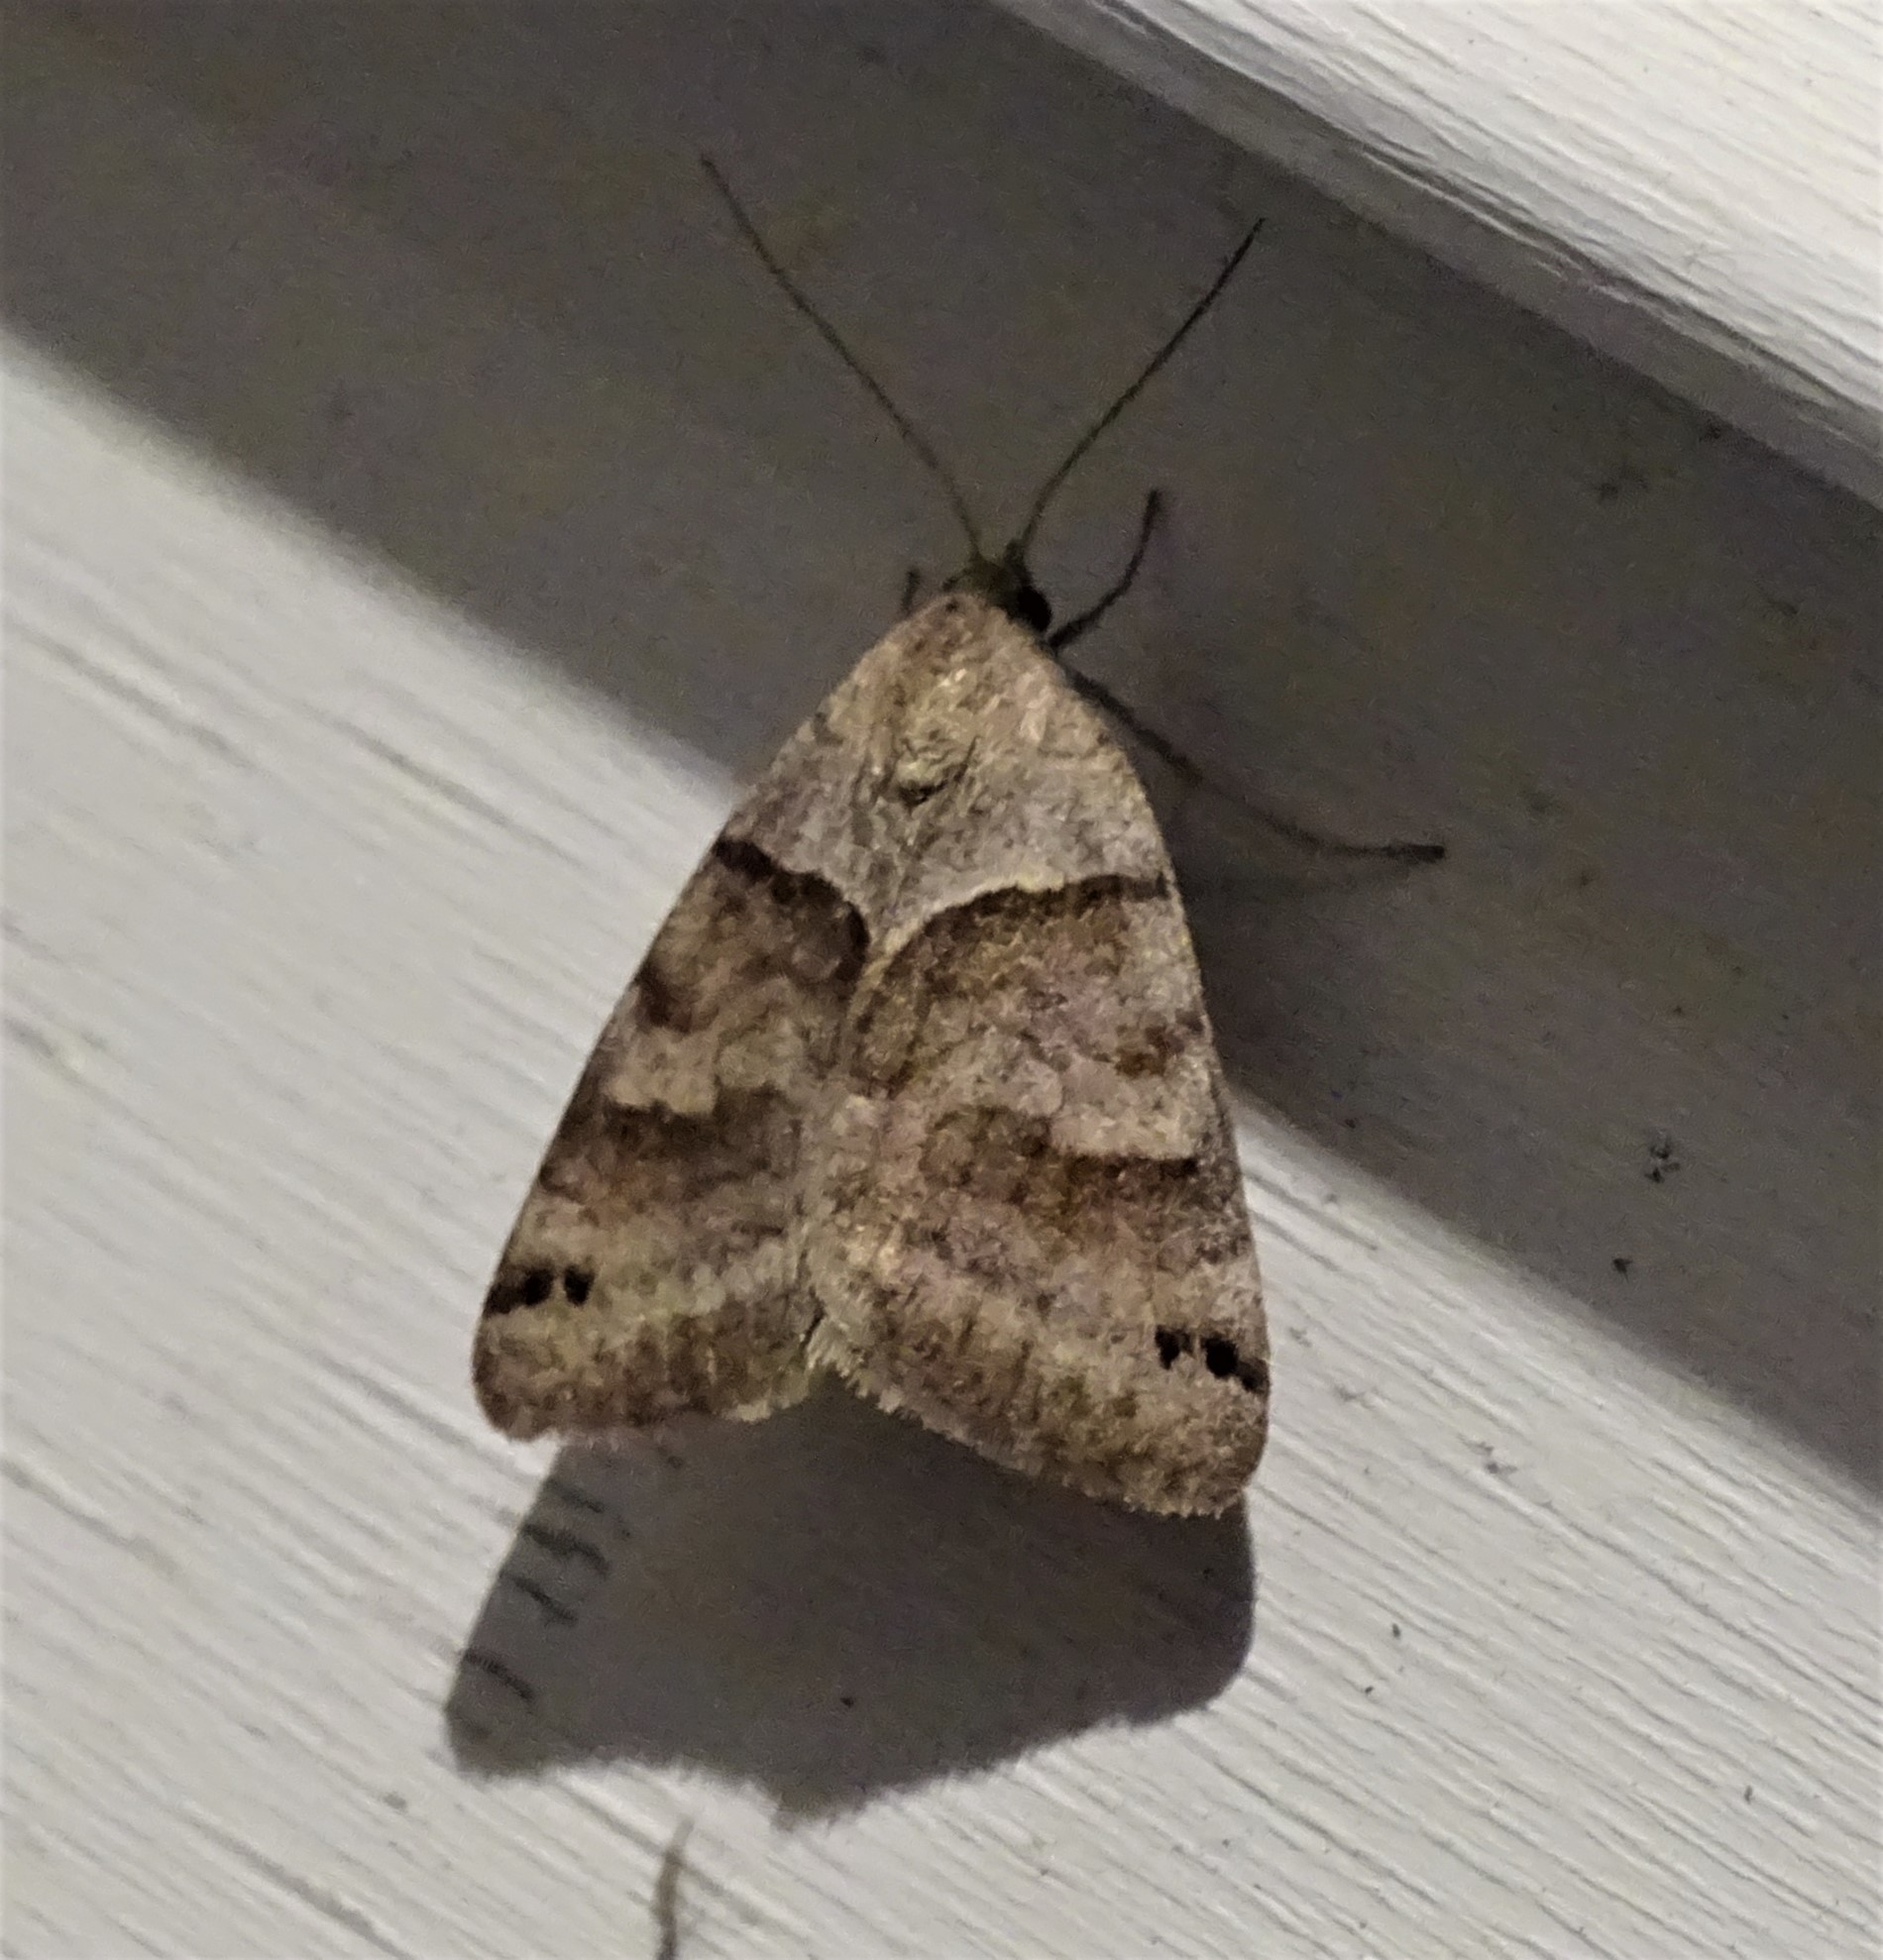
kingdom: Animalia
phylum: Arthropoda
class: Insecta
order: Lepidoptera
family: Erebidae
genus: Caenurgina
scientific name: Caenurgina crassiuscula
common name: Double-barred
